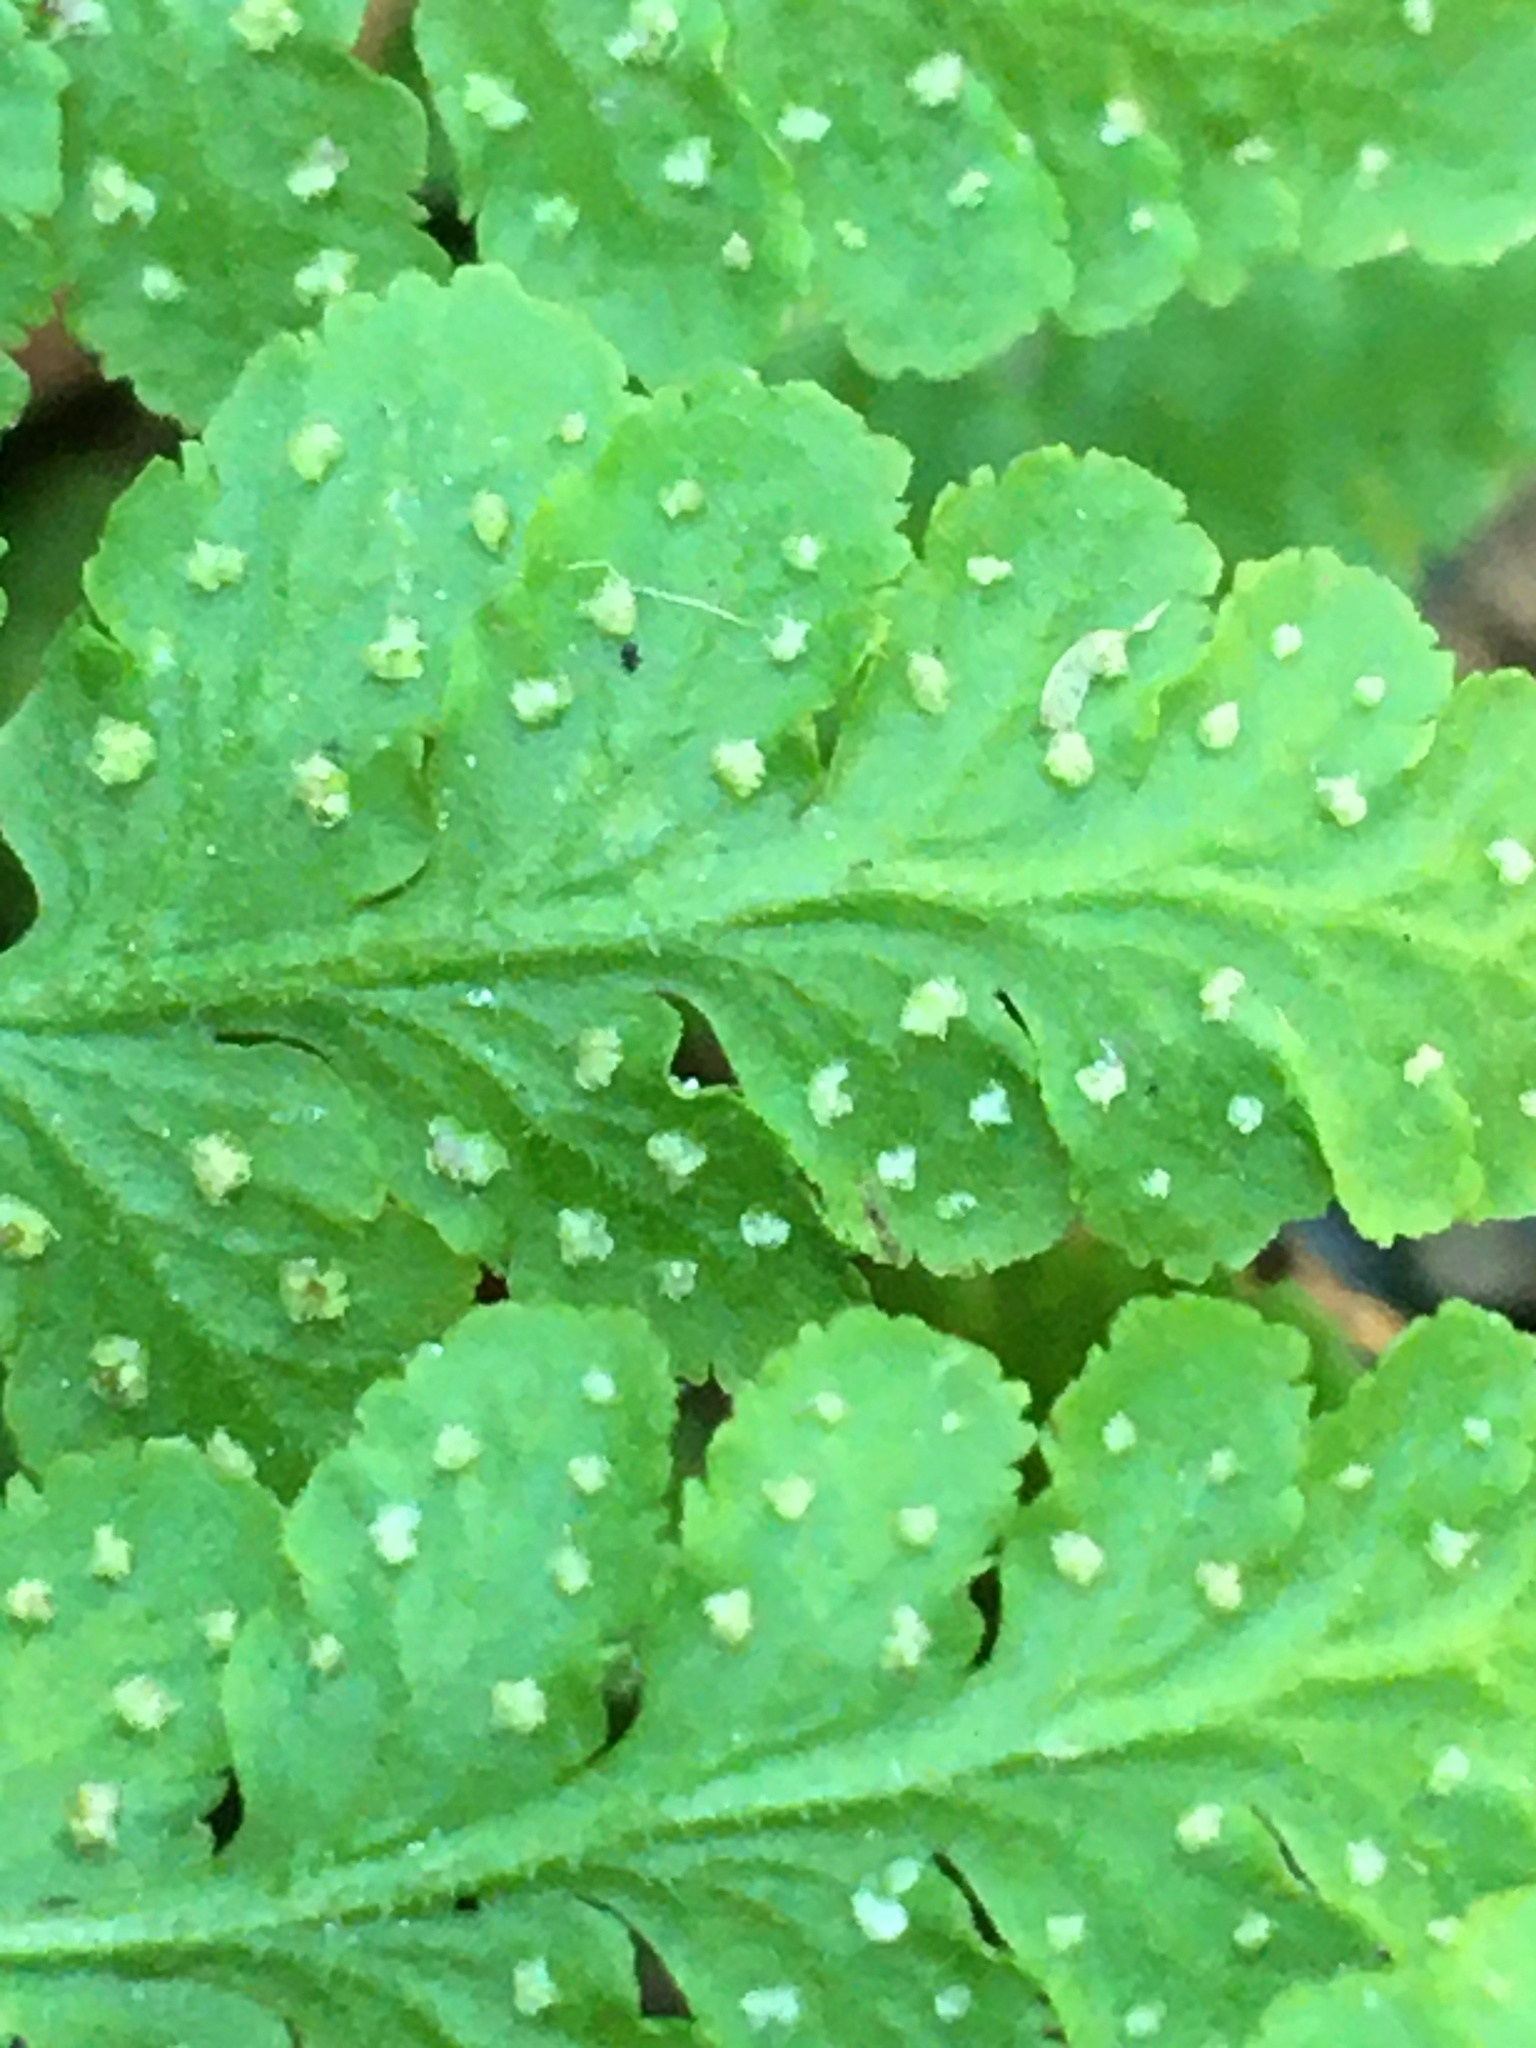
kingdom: Plantae
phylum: Tracheophyta
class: Polypodiopsida
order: Polypodiales
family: Woodsiaceae
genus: Physematium
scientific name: Physematium obtusum
